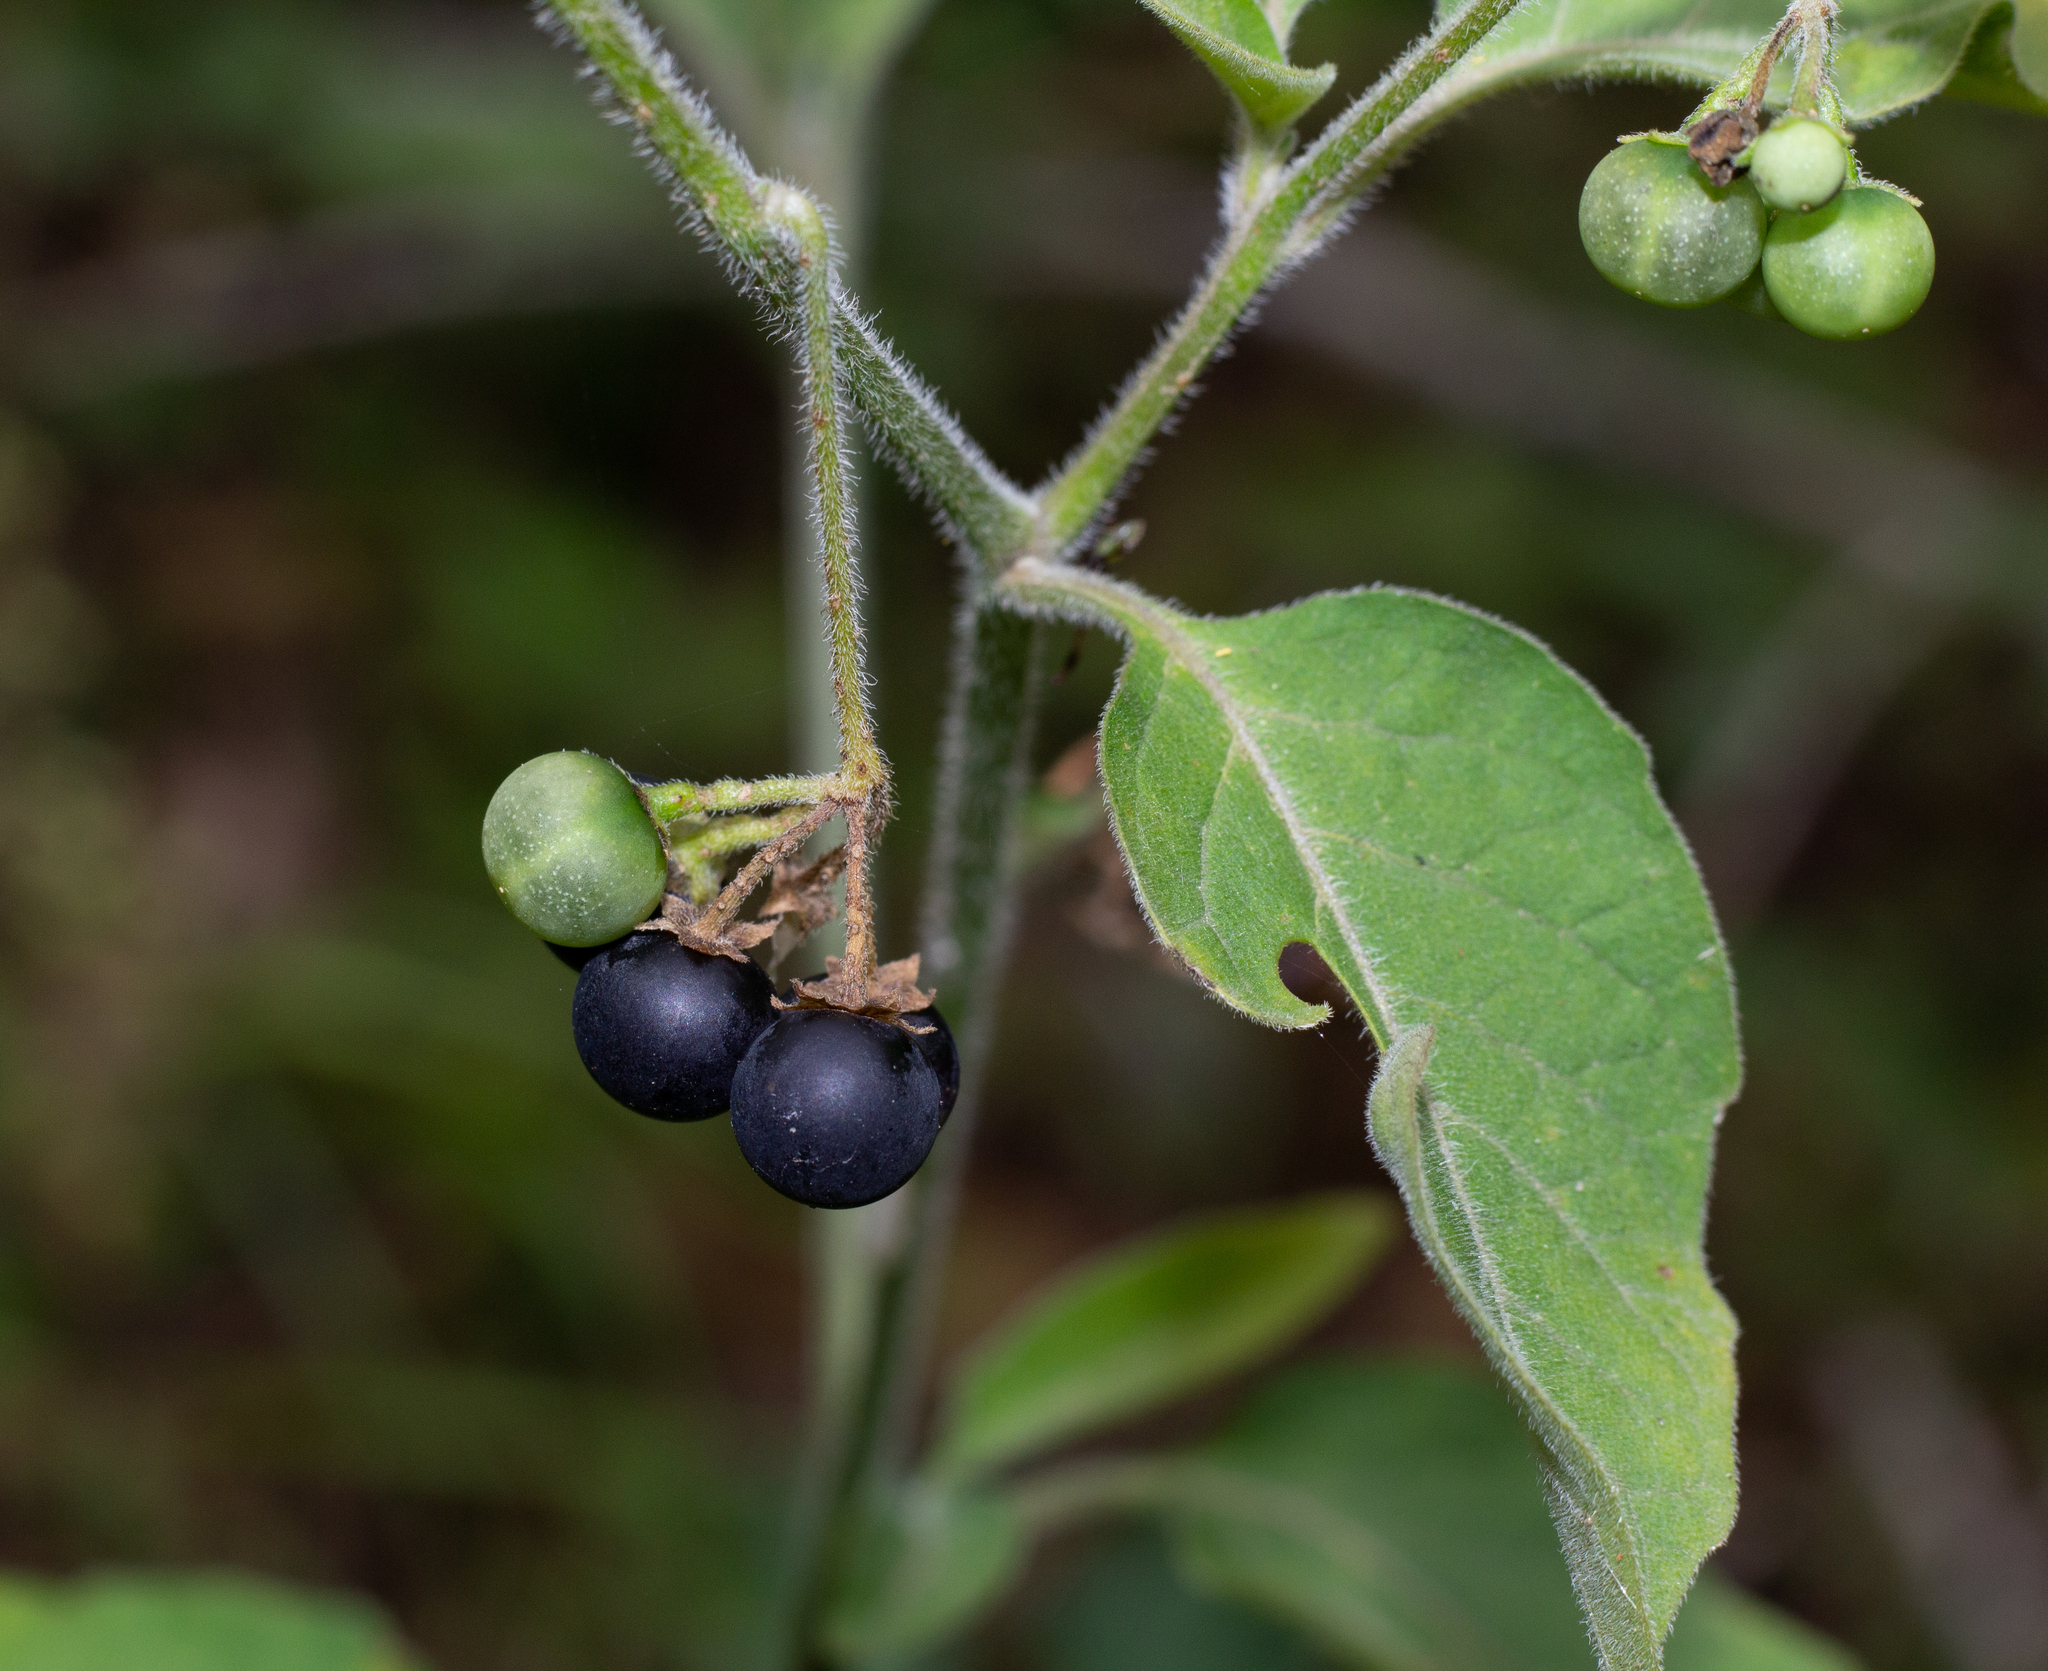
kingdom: Plantae
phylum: Tracheophyta
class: Magnoliopsida
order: Solanales
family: Solanaceae
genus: Solanum
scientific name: Solanum chenopodioides
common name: Tall nightshade
